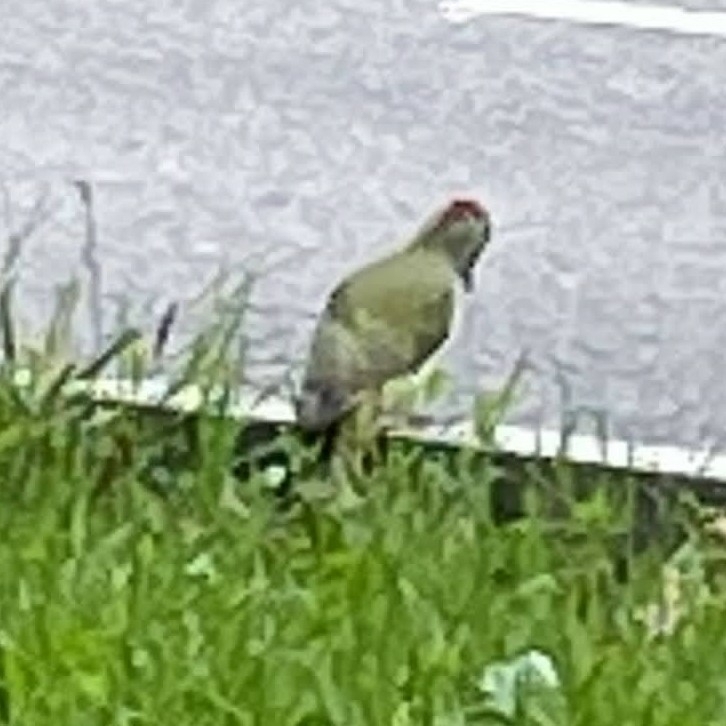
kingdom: Animalia
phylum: Chordata
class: Aves
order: Piciformes
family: Picidae
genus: Picus
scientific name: Picus viridis
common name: European green woodpecker
